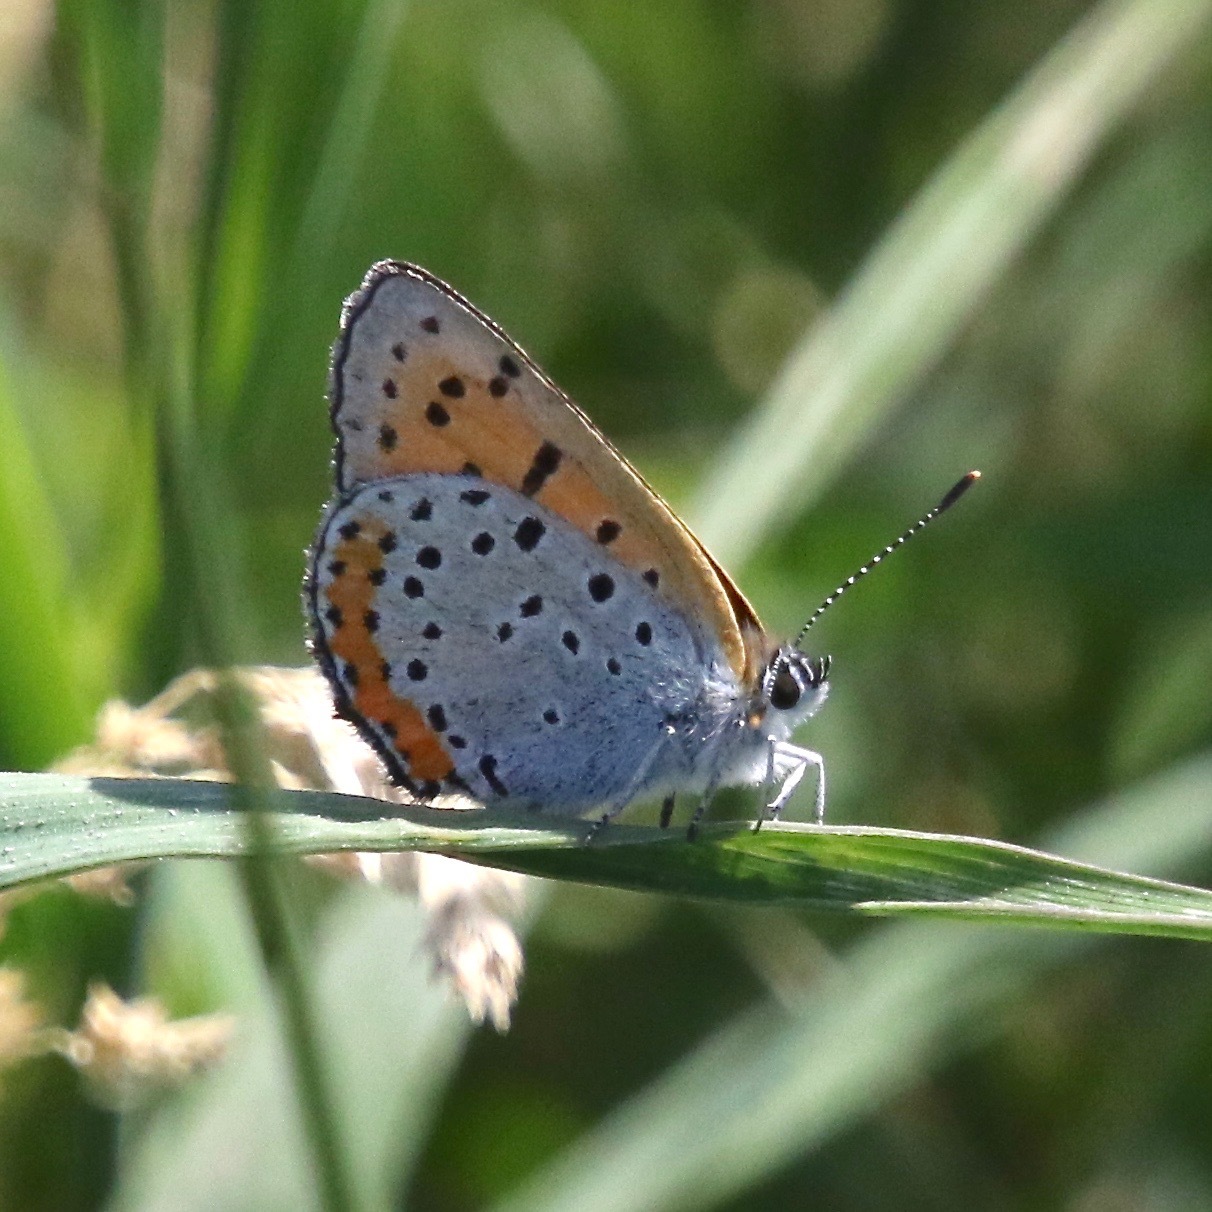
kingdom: Animalia
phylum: Arthropoda
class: Insecta
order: Lepidoptera
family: Lycaenidae
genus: Tharsalea
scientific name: Tharsalea hyllus
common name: Bronze copper
